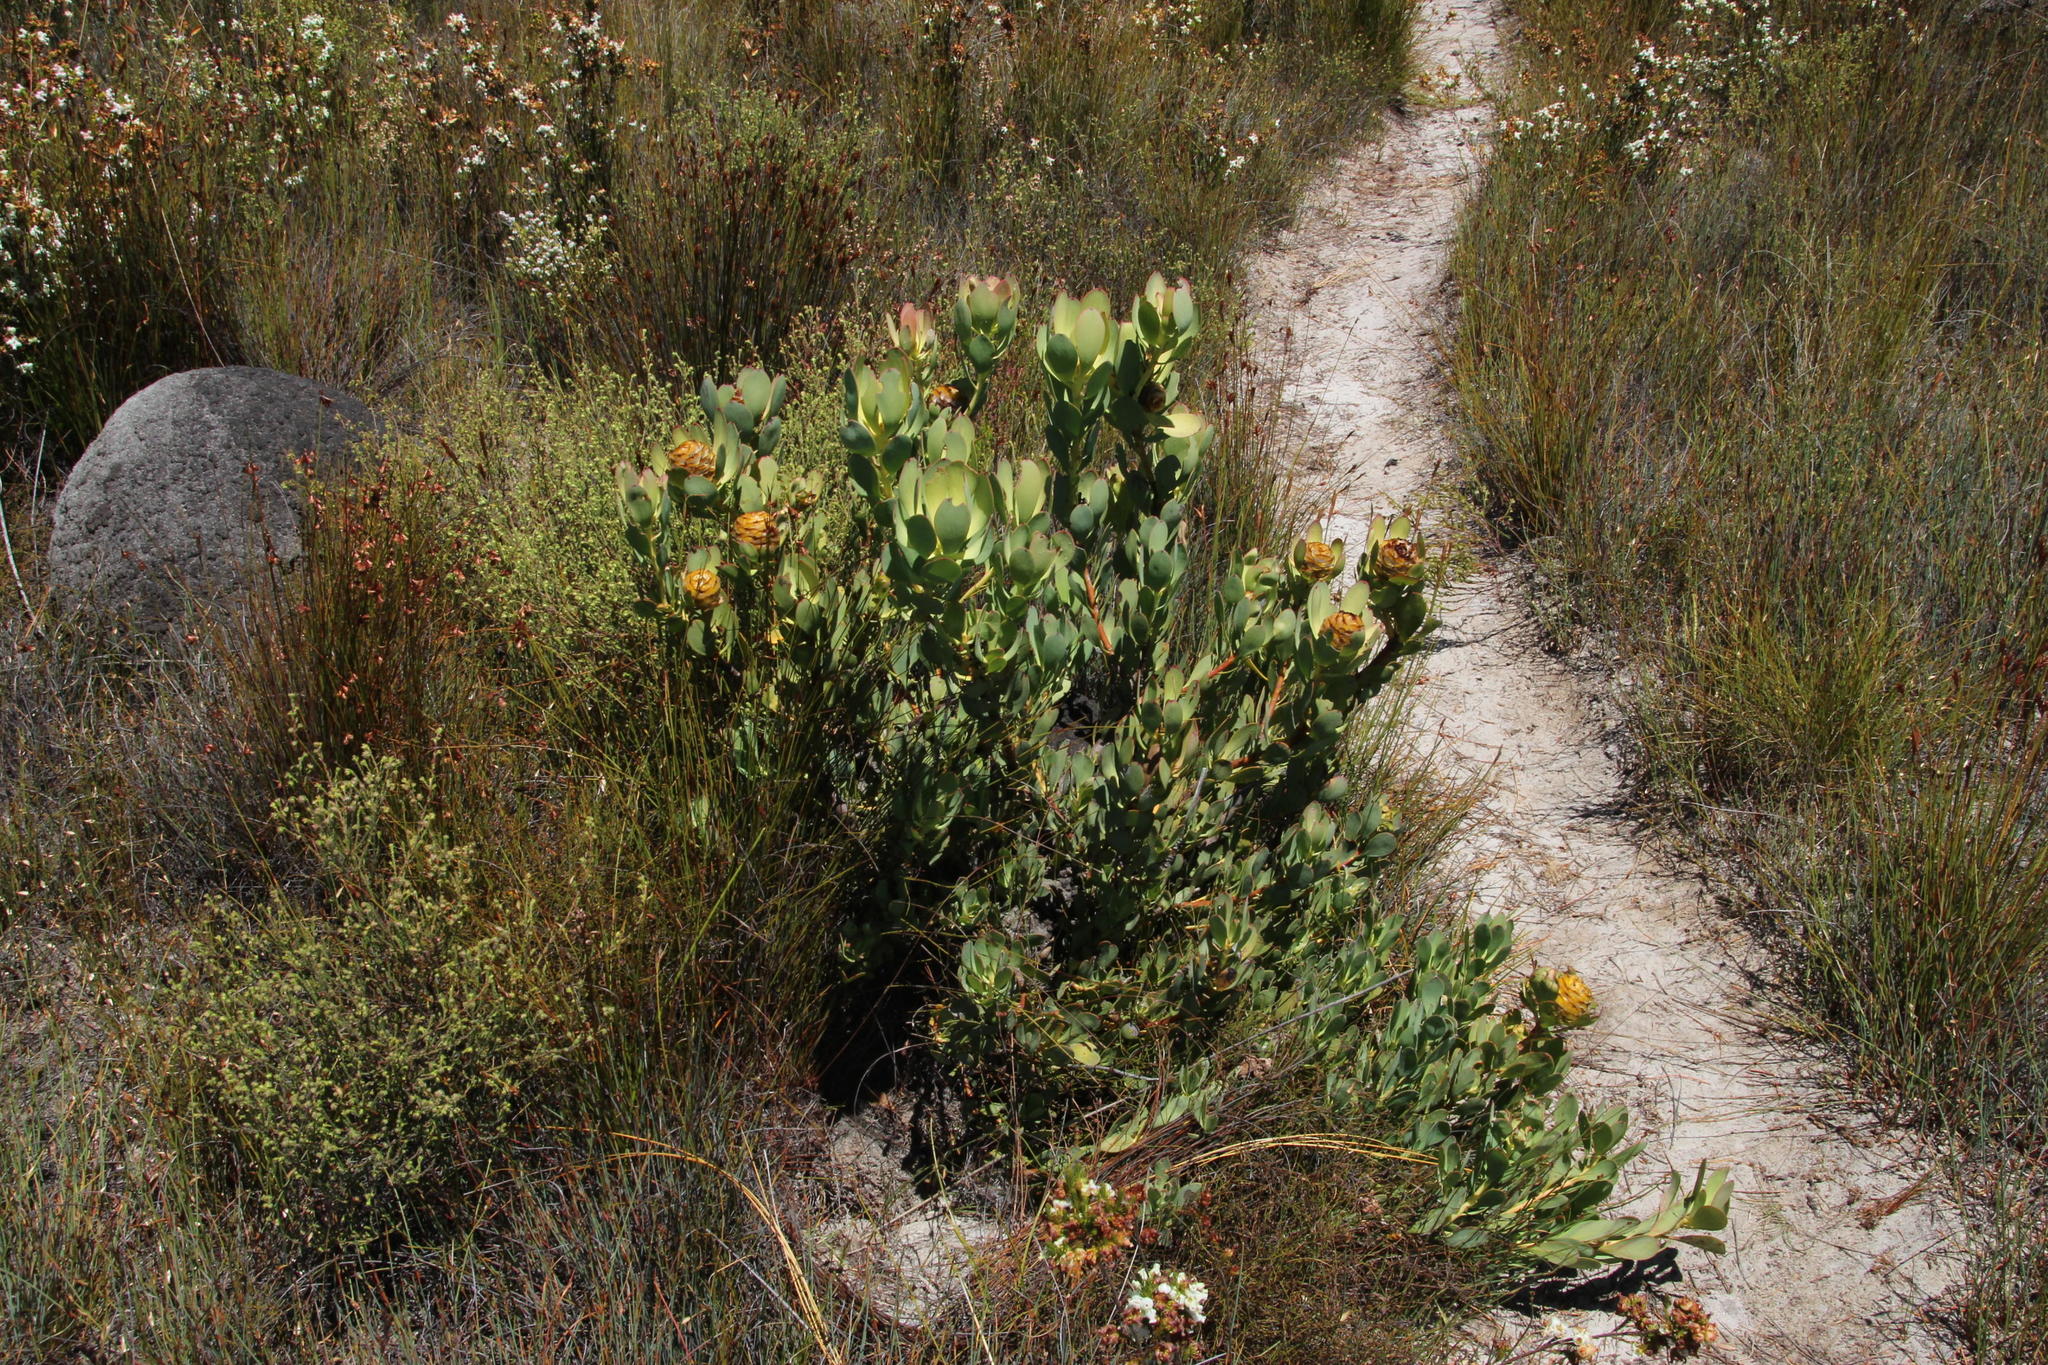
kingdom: Plantae
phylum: Tracheophyta
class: Magnoliopsida
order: Proteales
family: Proteaceae
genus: Leucadendron
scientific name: Leucadendron arcuatum
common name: Red-edge conebush
